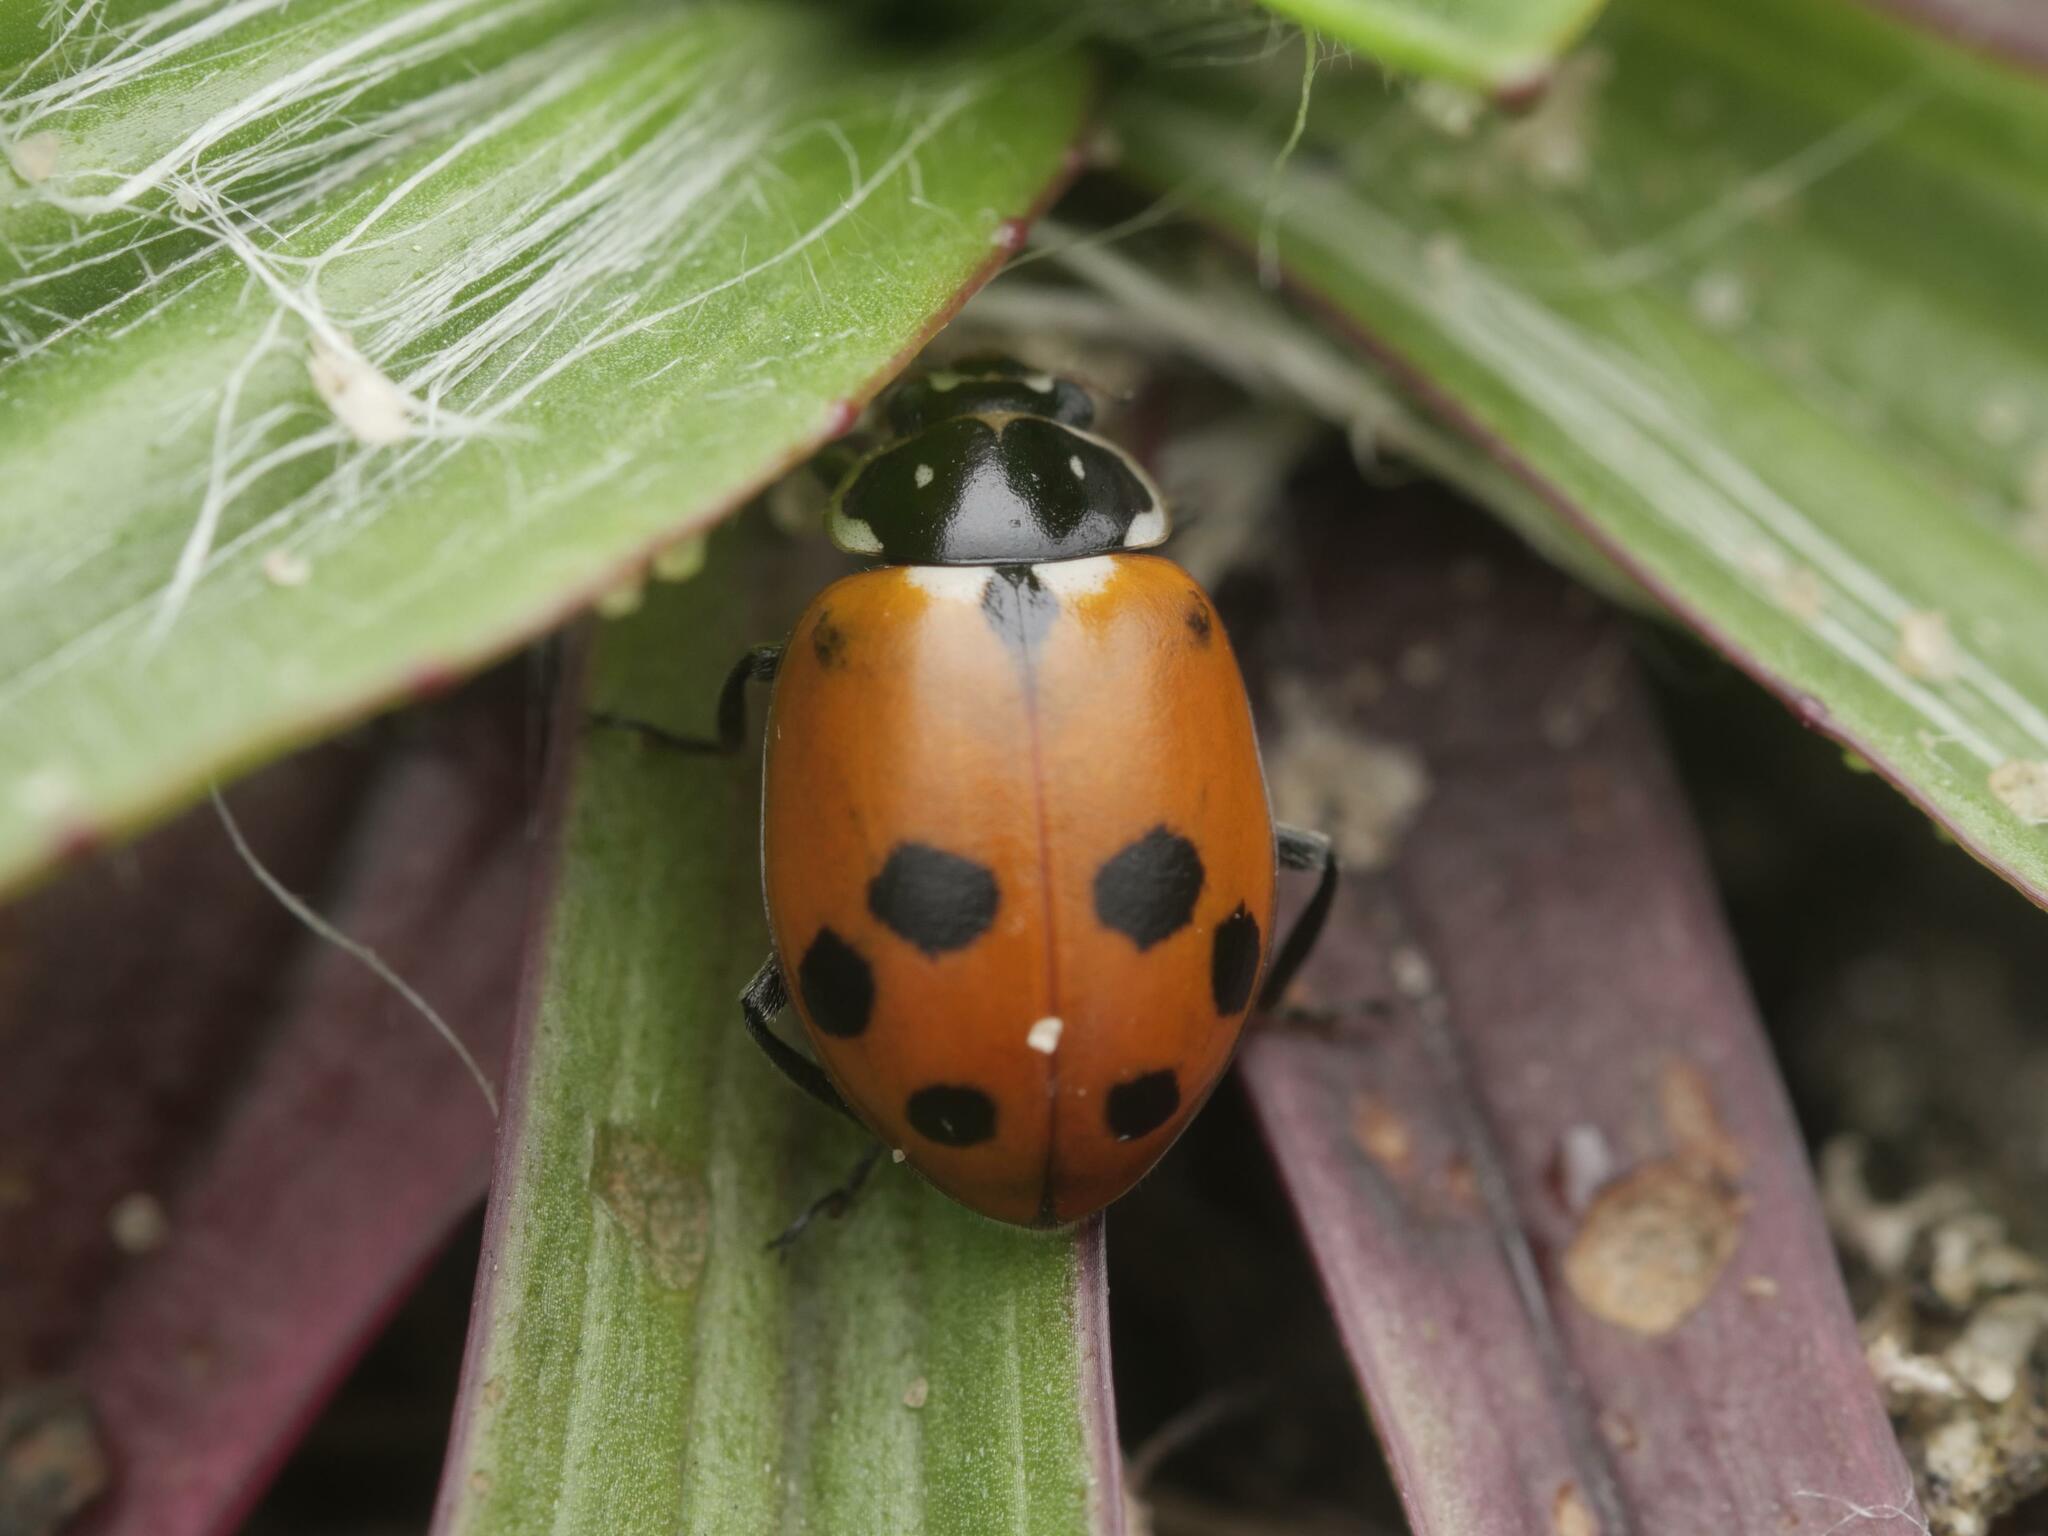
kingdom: Animalia
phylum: Arthropoda
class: Insecta
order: Coleoptera
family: Coccinellidae
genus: Hippodamia
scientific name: Hippodamia variegata
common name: Ladybird beetle
